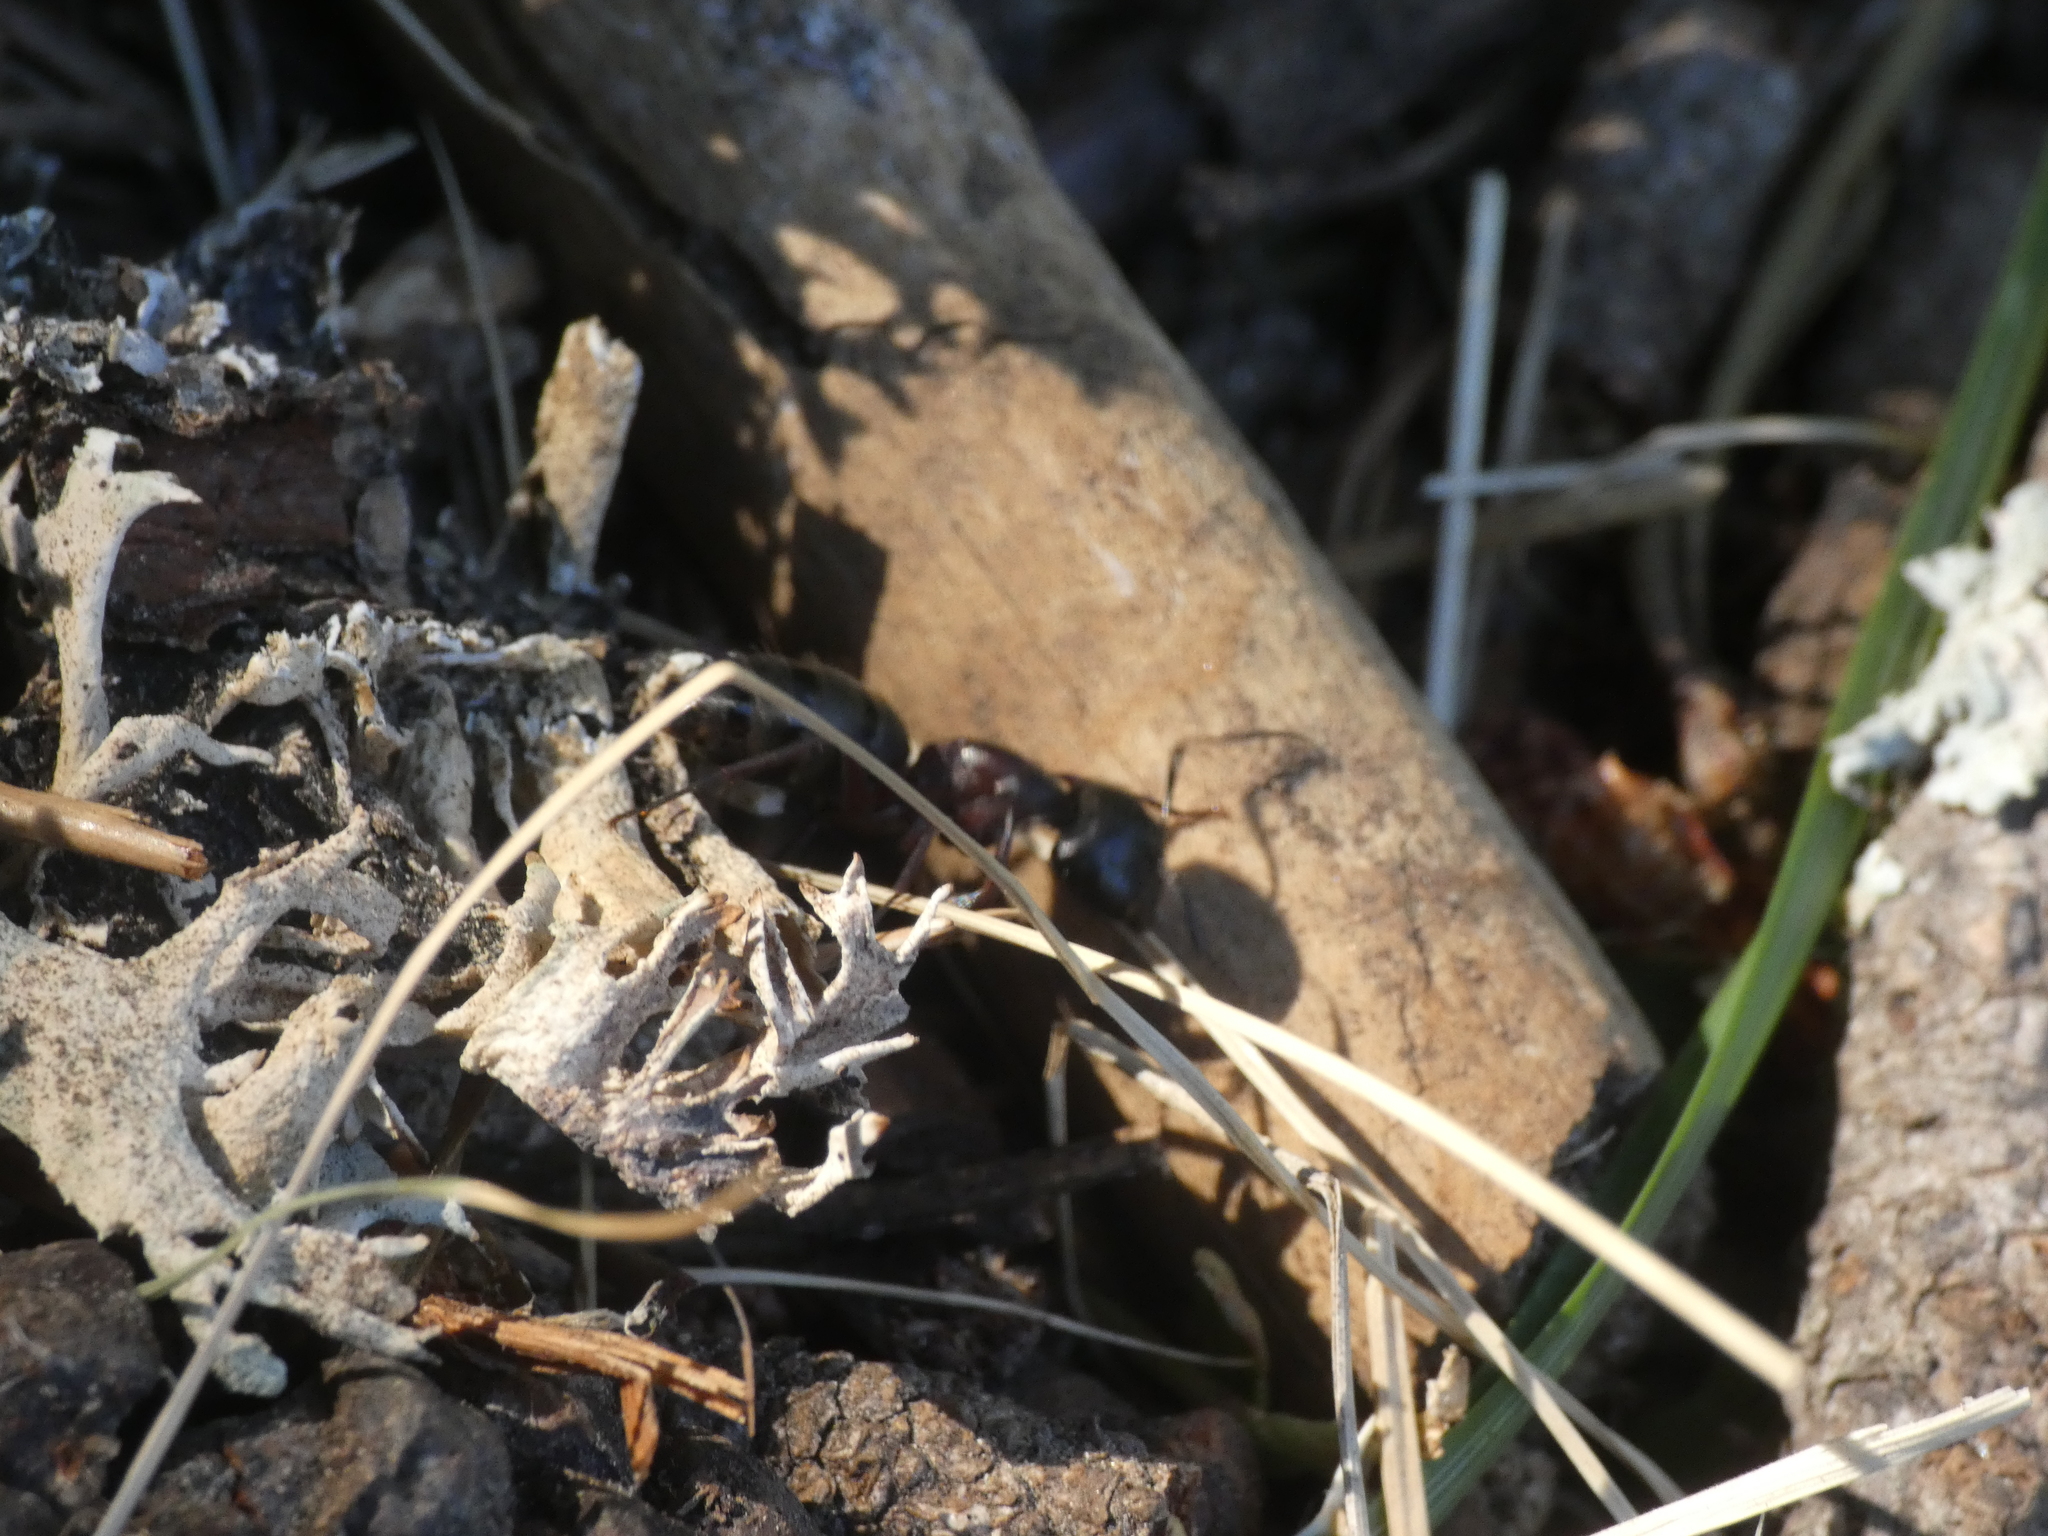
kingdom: Animalia
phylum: Arthropoda
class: Insecta
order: Hymenoptera
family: Formicidae
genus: Camponotus
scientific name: Camponotus herculeanus
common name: Hercules ant
